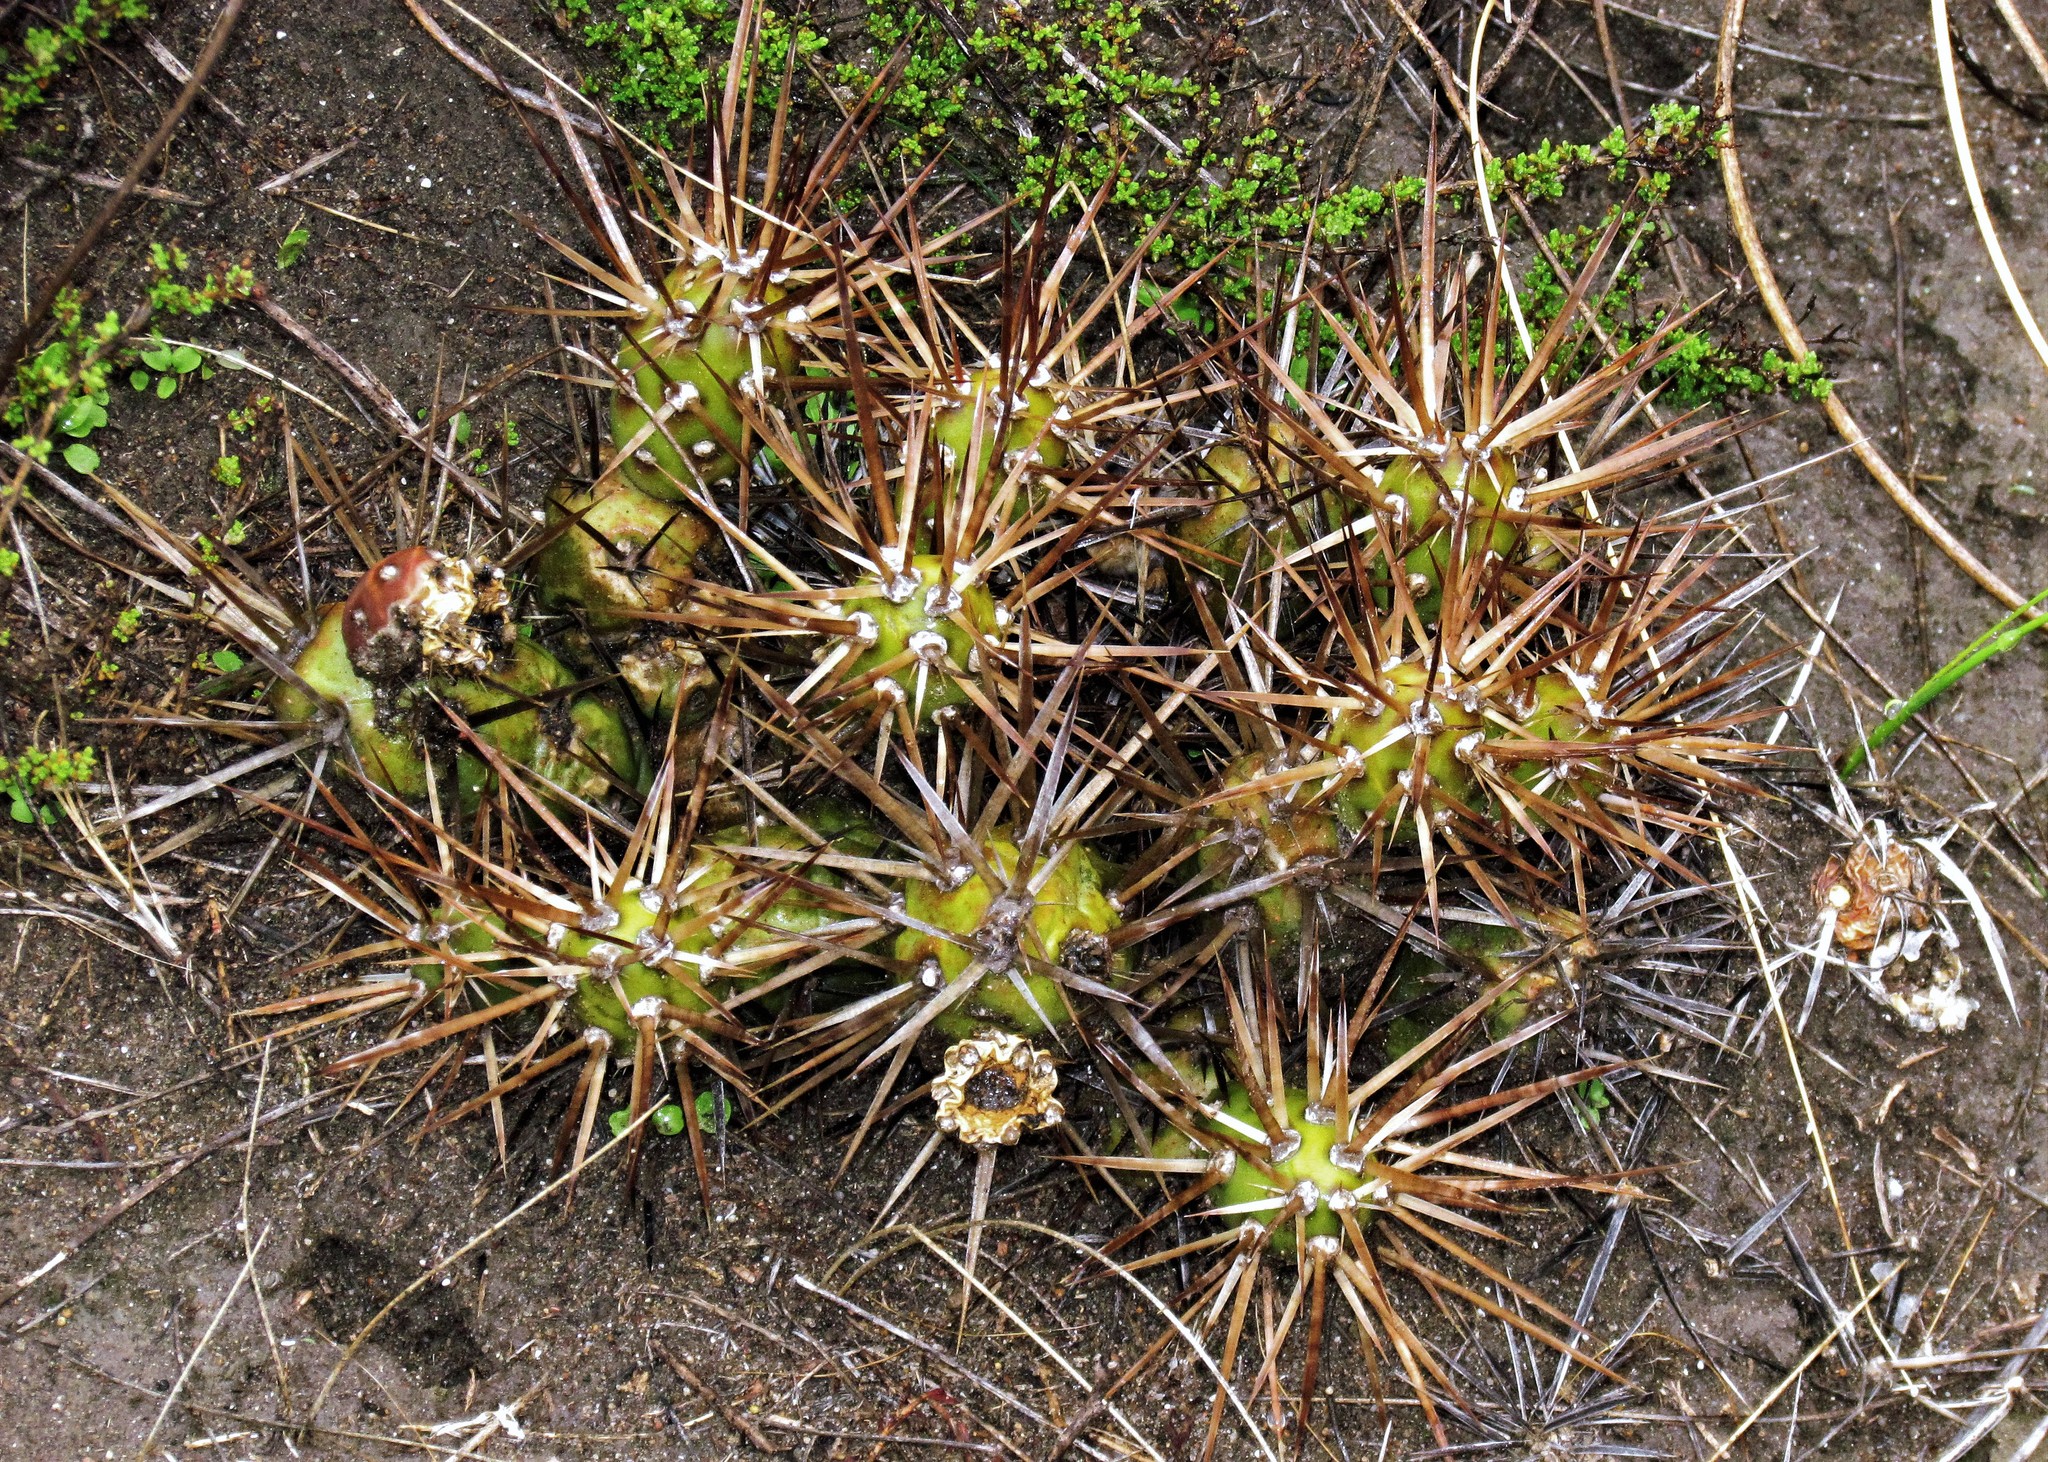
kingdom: Plantae
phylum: Tracheophyta
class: Magnoliopsida
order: Caryophyllales
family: Cactaceae
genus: Maihueniopsis
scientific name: Maihueniopsis darwinii
